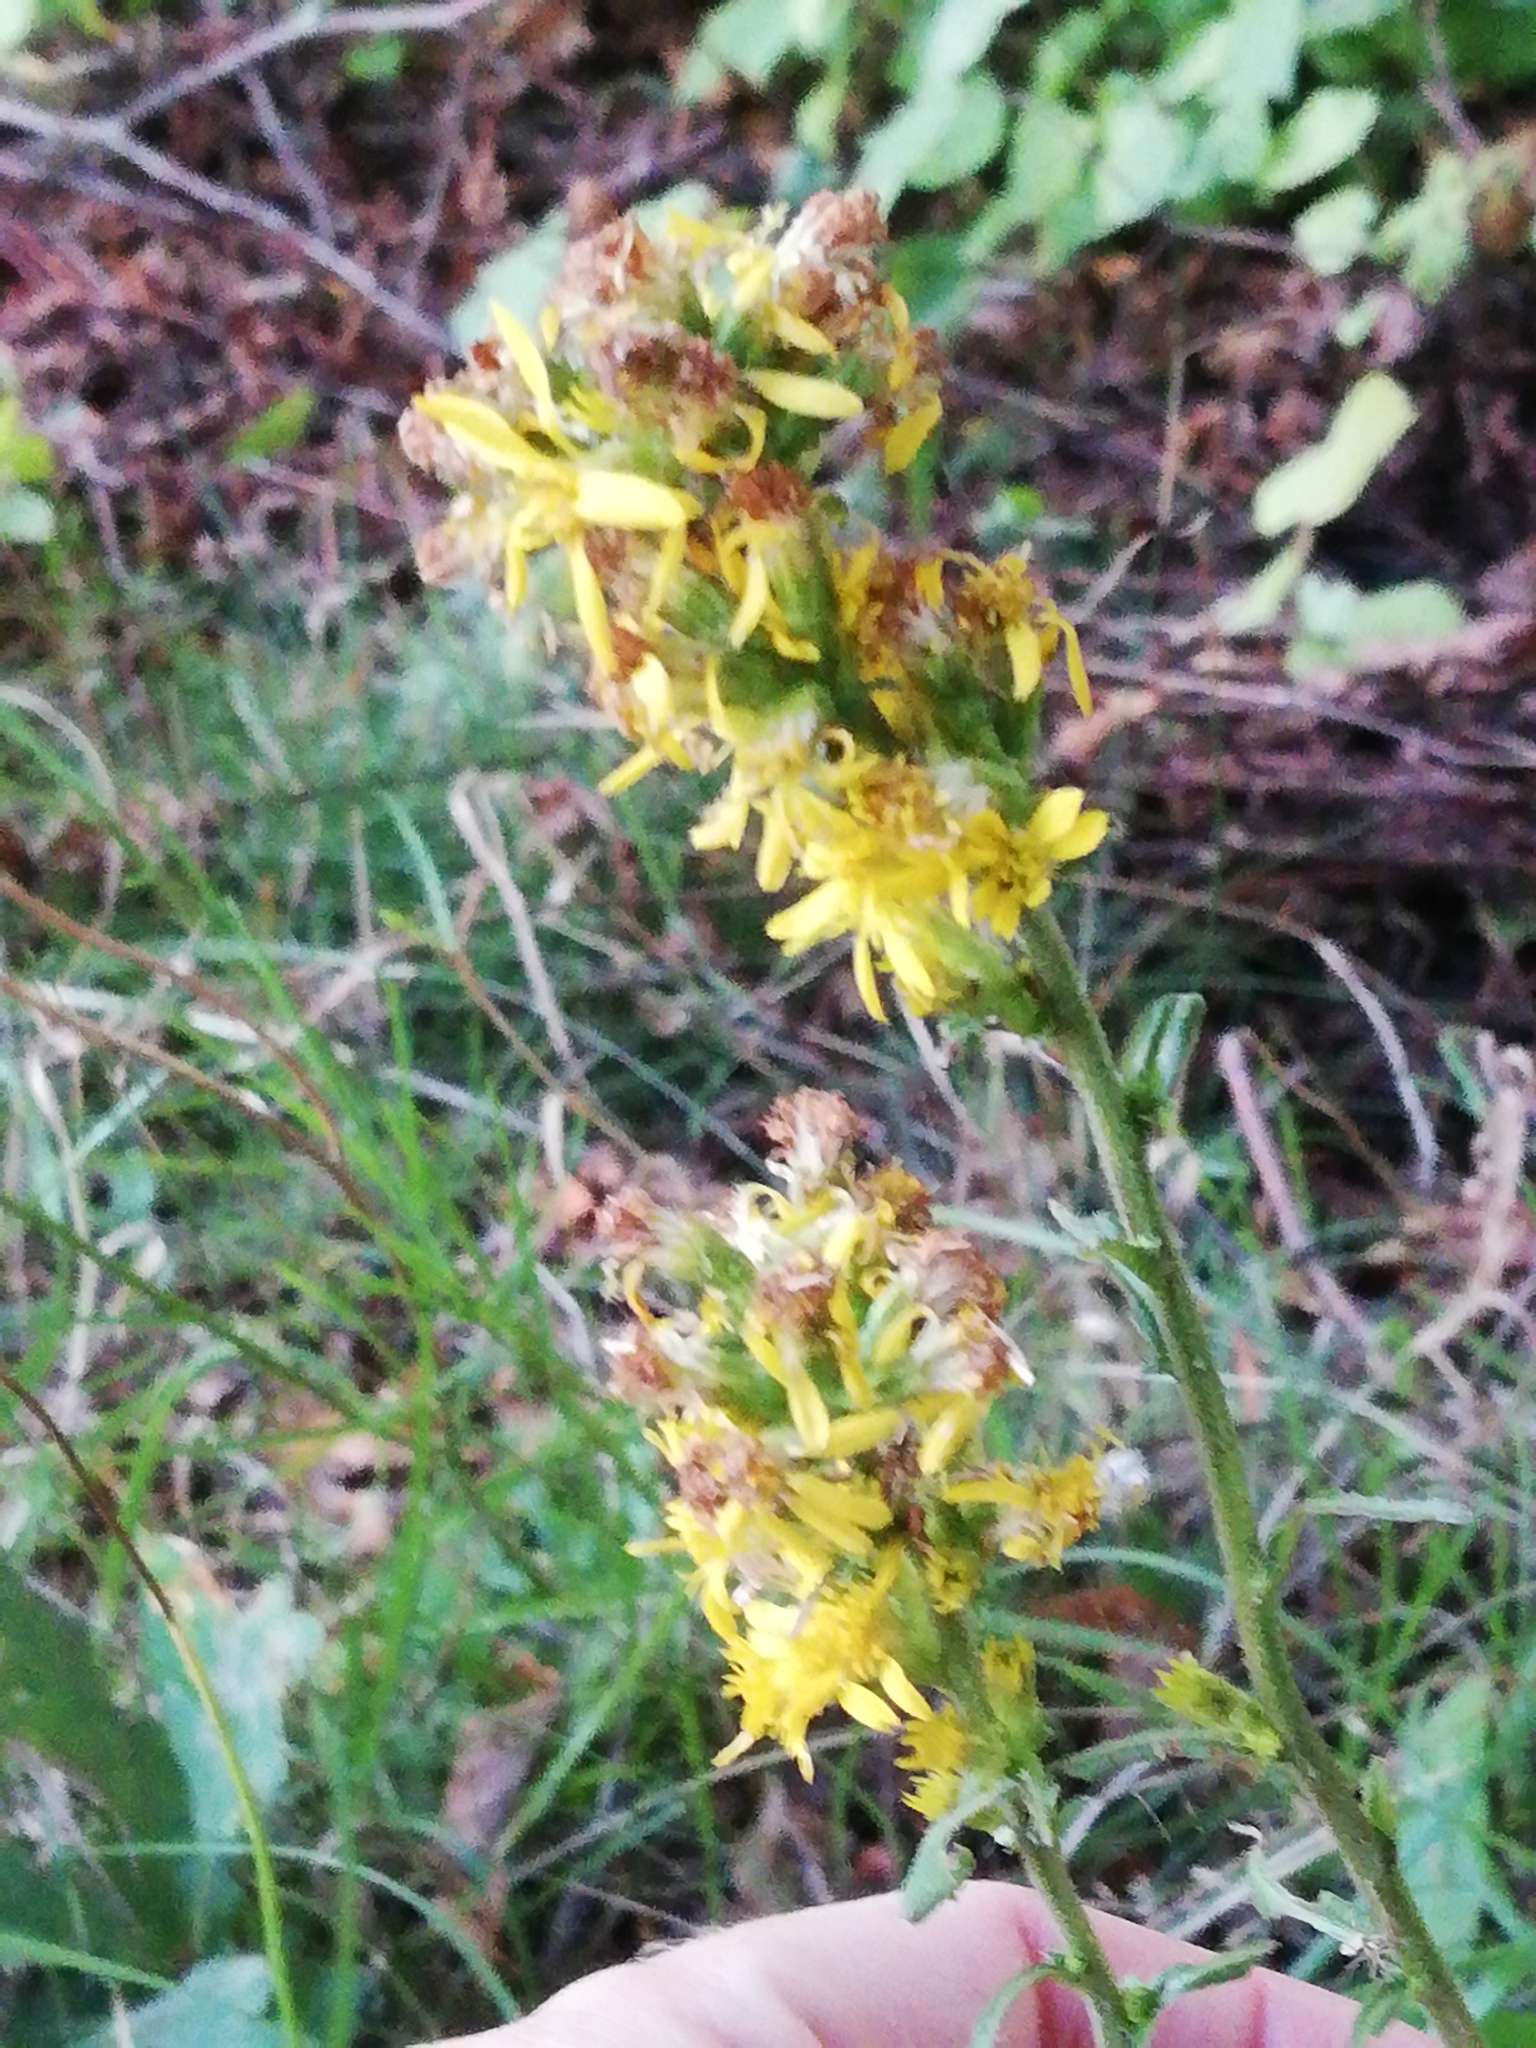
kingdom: Plantae
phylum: Tracheophyta
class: Magnoliopsida
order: Asterales
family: Asteraceae
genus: Solidago
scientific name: Solidago virgaurea
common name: Goldenrod
